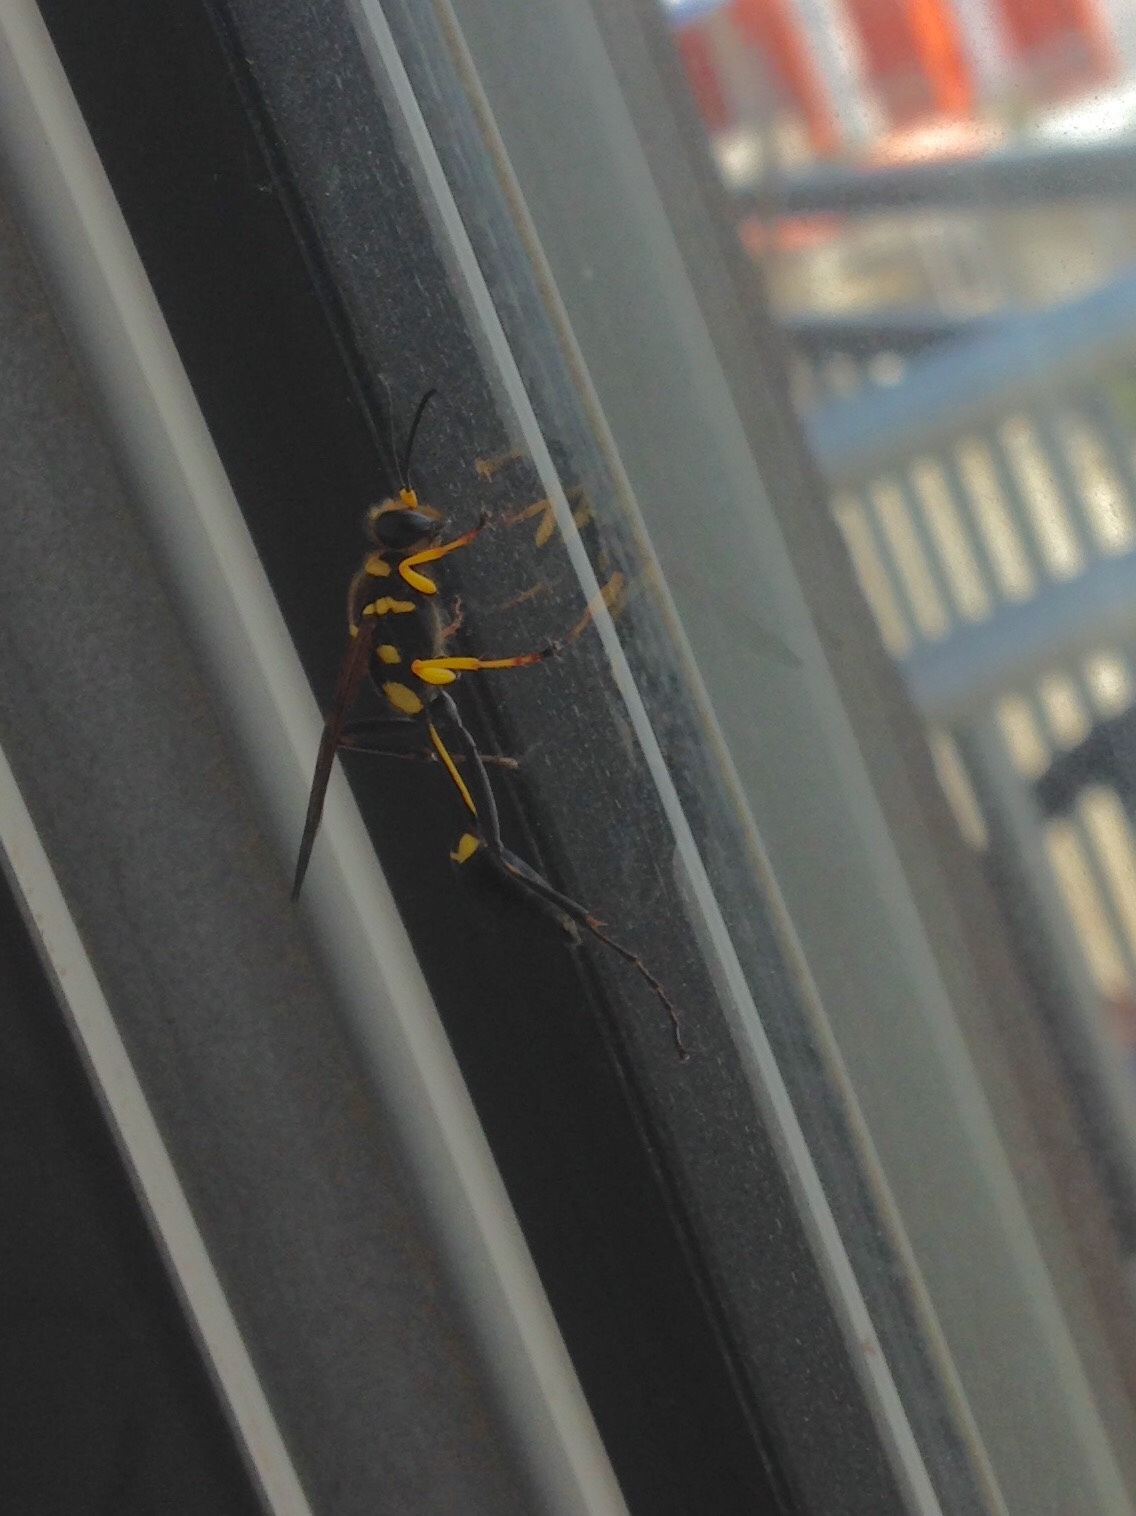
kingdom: Animalia
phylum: Arthropoda
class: Insecta
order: Hymenoptera
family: Sphecidae
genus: Sceliphron
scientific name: Sceliphron asiaticum
